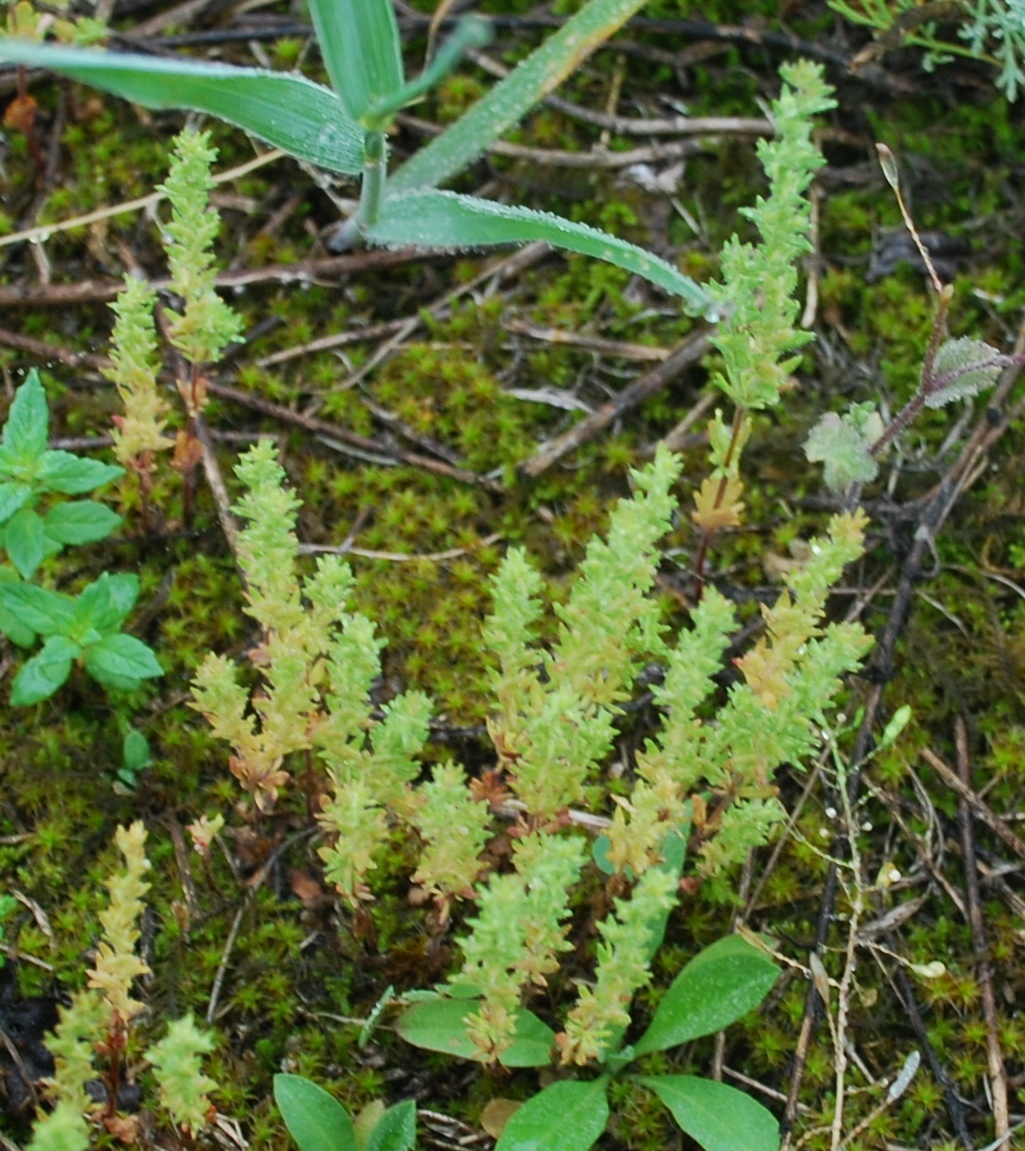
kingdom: Plantae
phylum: Tracheophyta
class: Magnoliopsida
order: Lamiales
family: Plantaginaceae
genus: Veronica
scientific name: Veronica verna
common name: Spring speedwell
